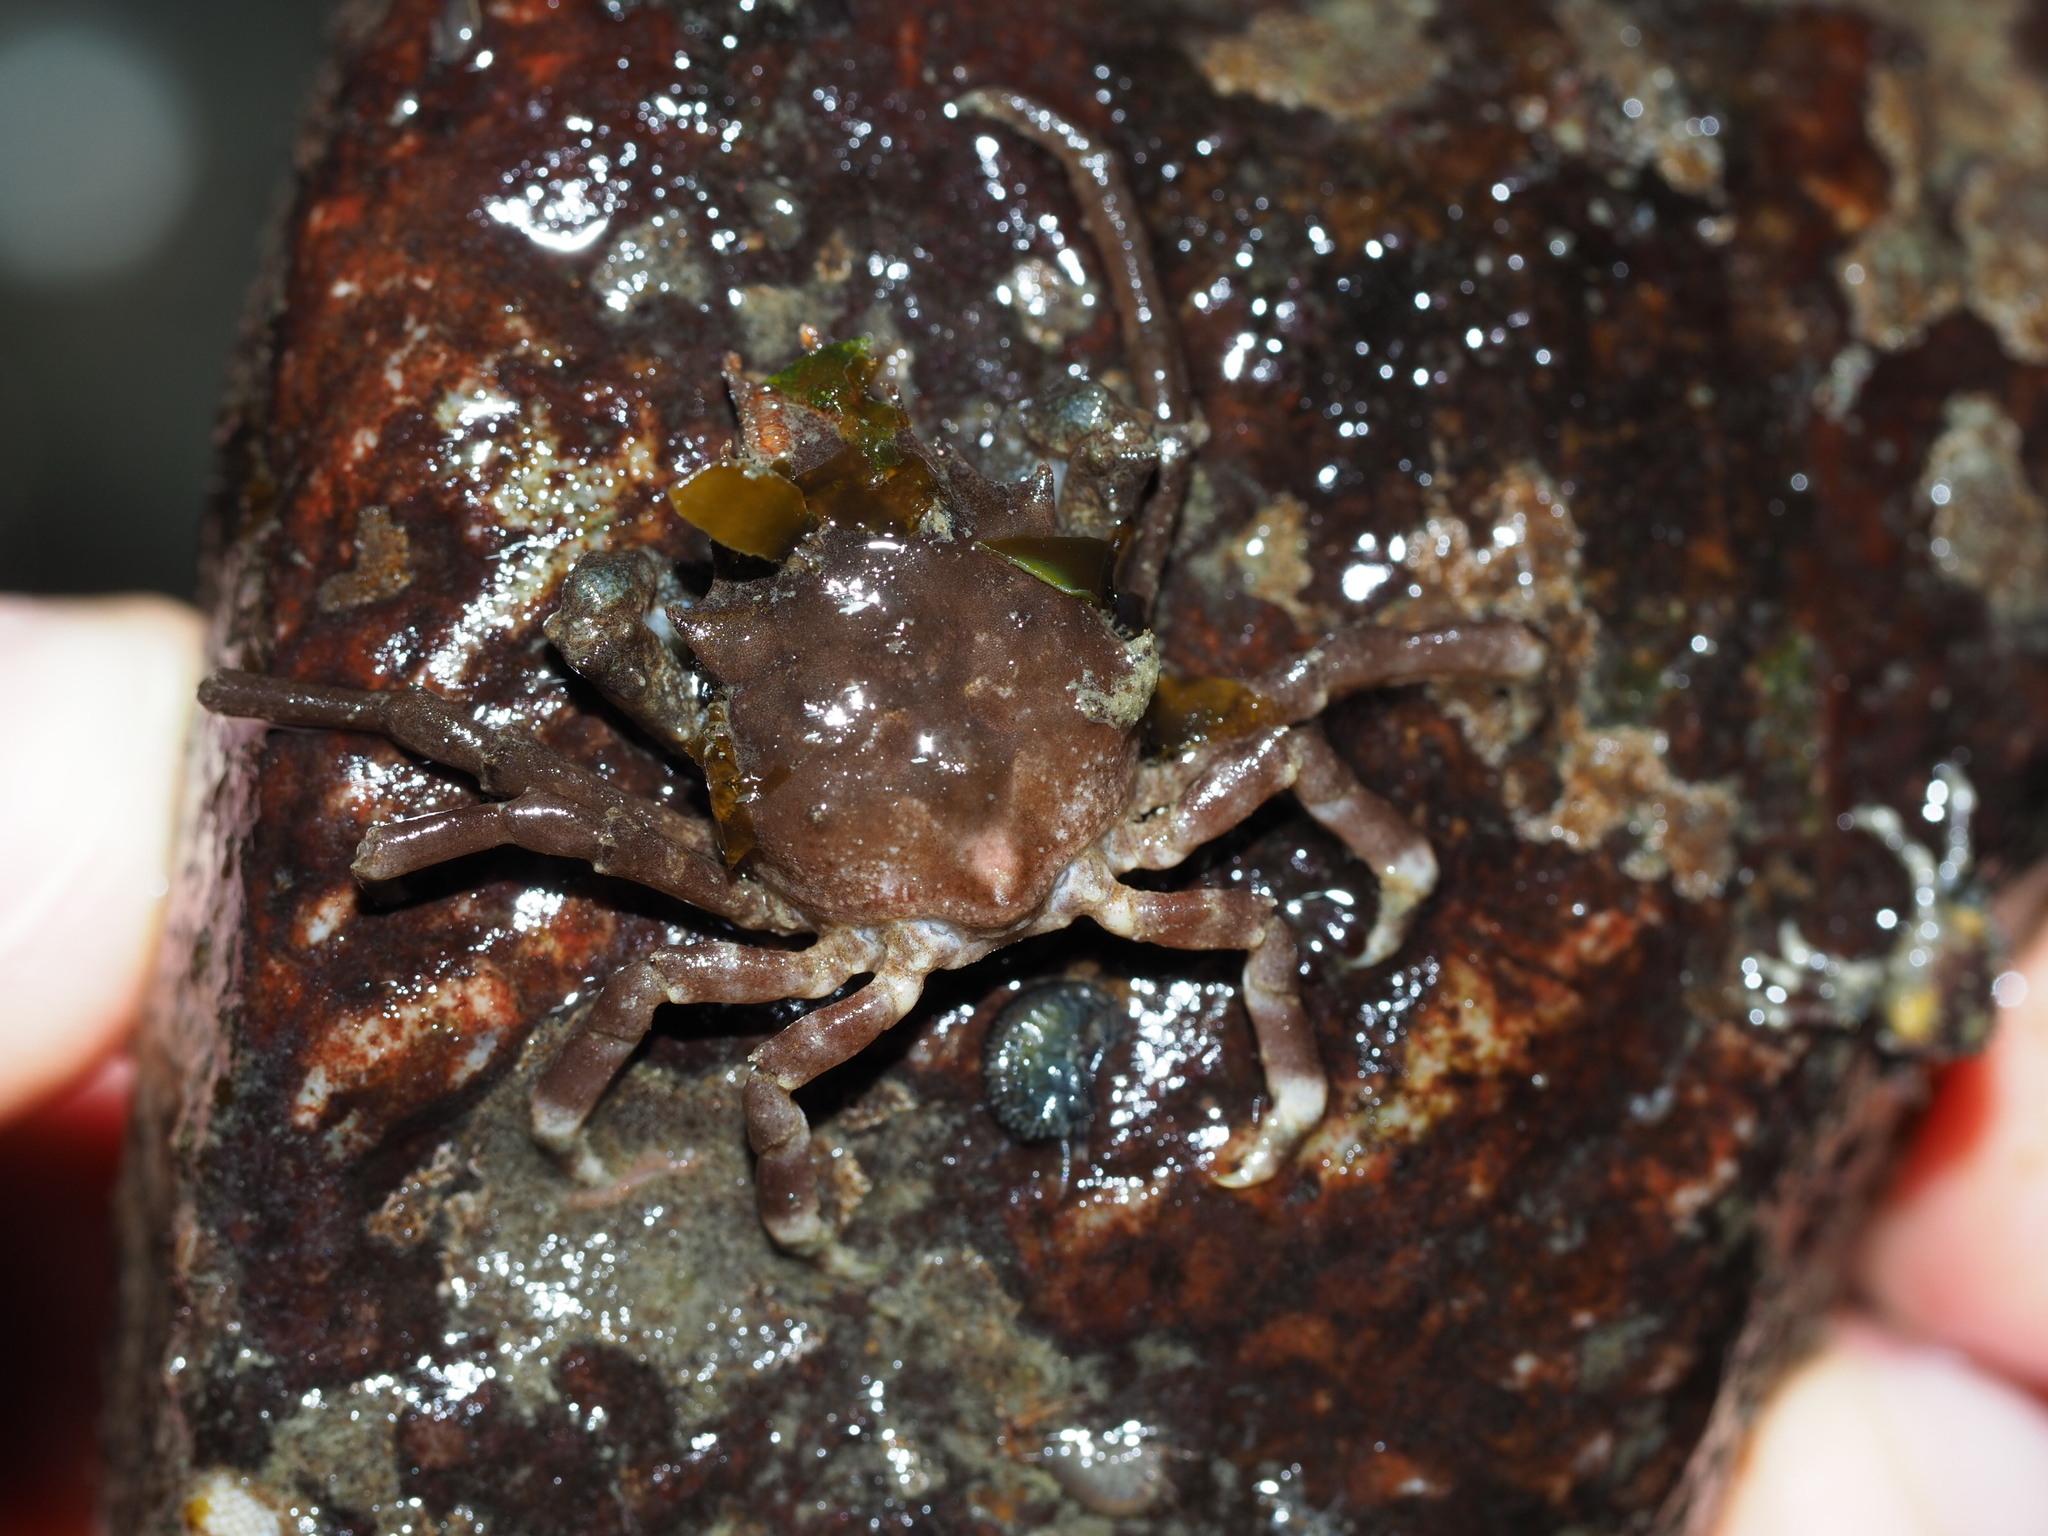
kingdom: Animalia
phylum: Arthropoda
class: Malacostraca
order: Decapoda
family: Epialtidae
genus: Pugettia
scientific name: Pugettia gracilis
